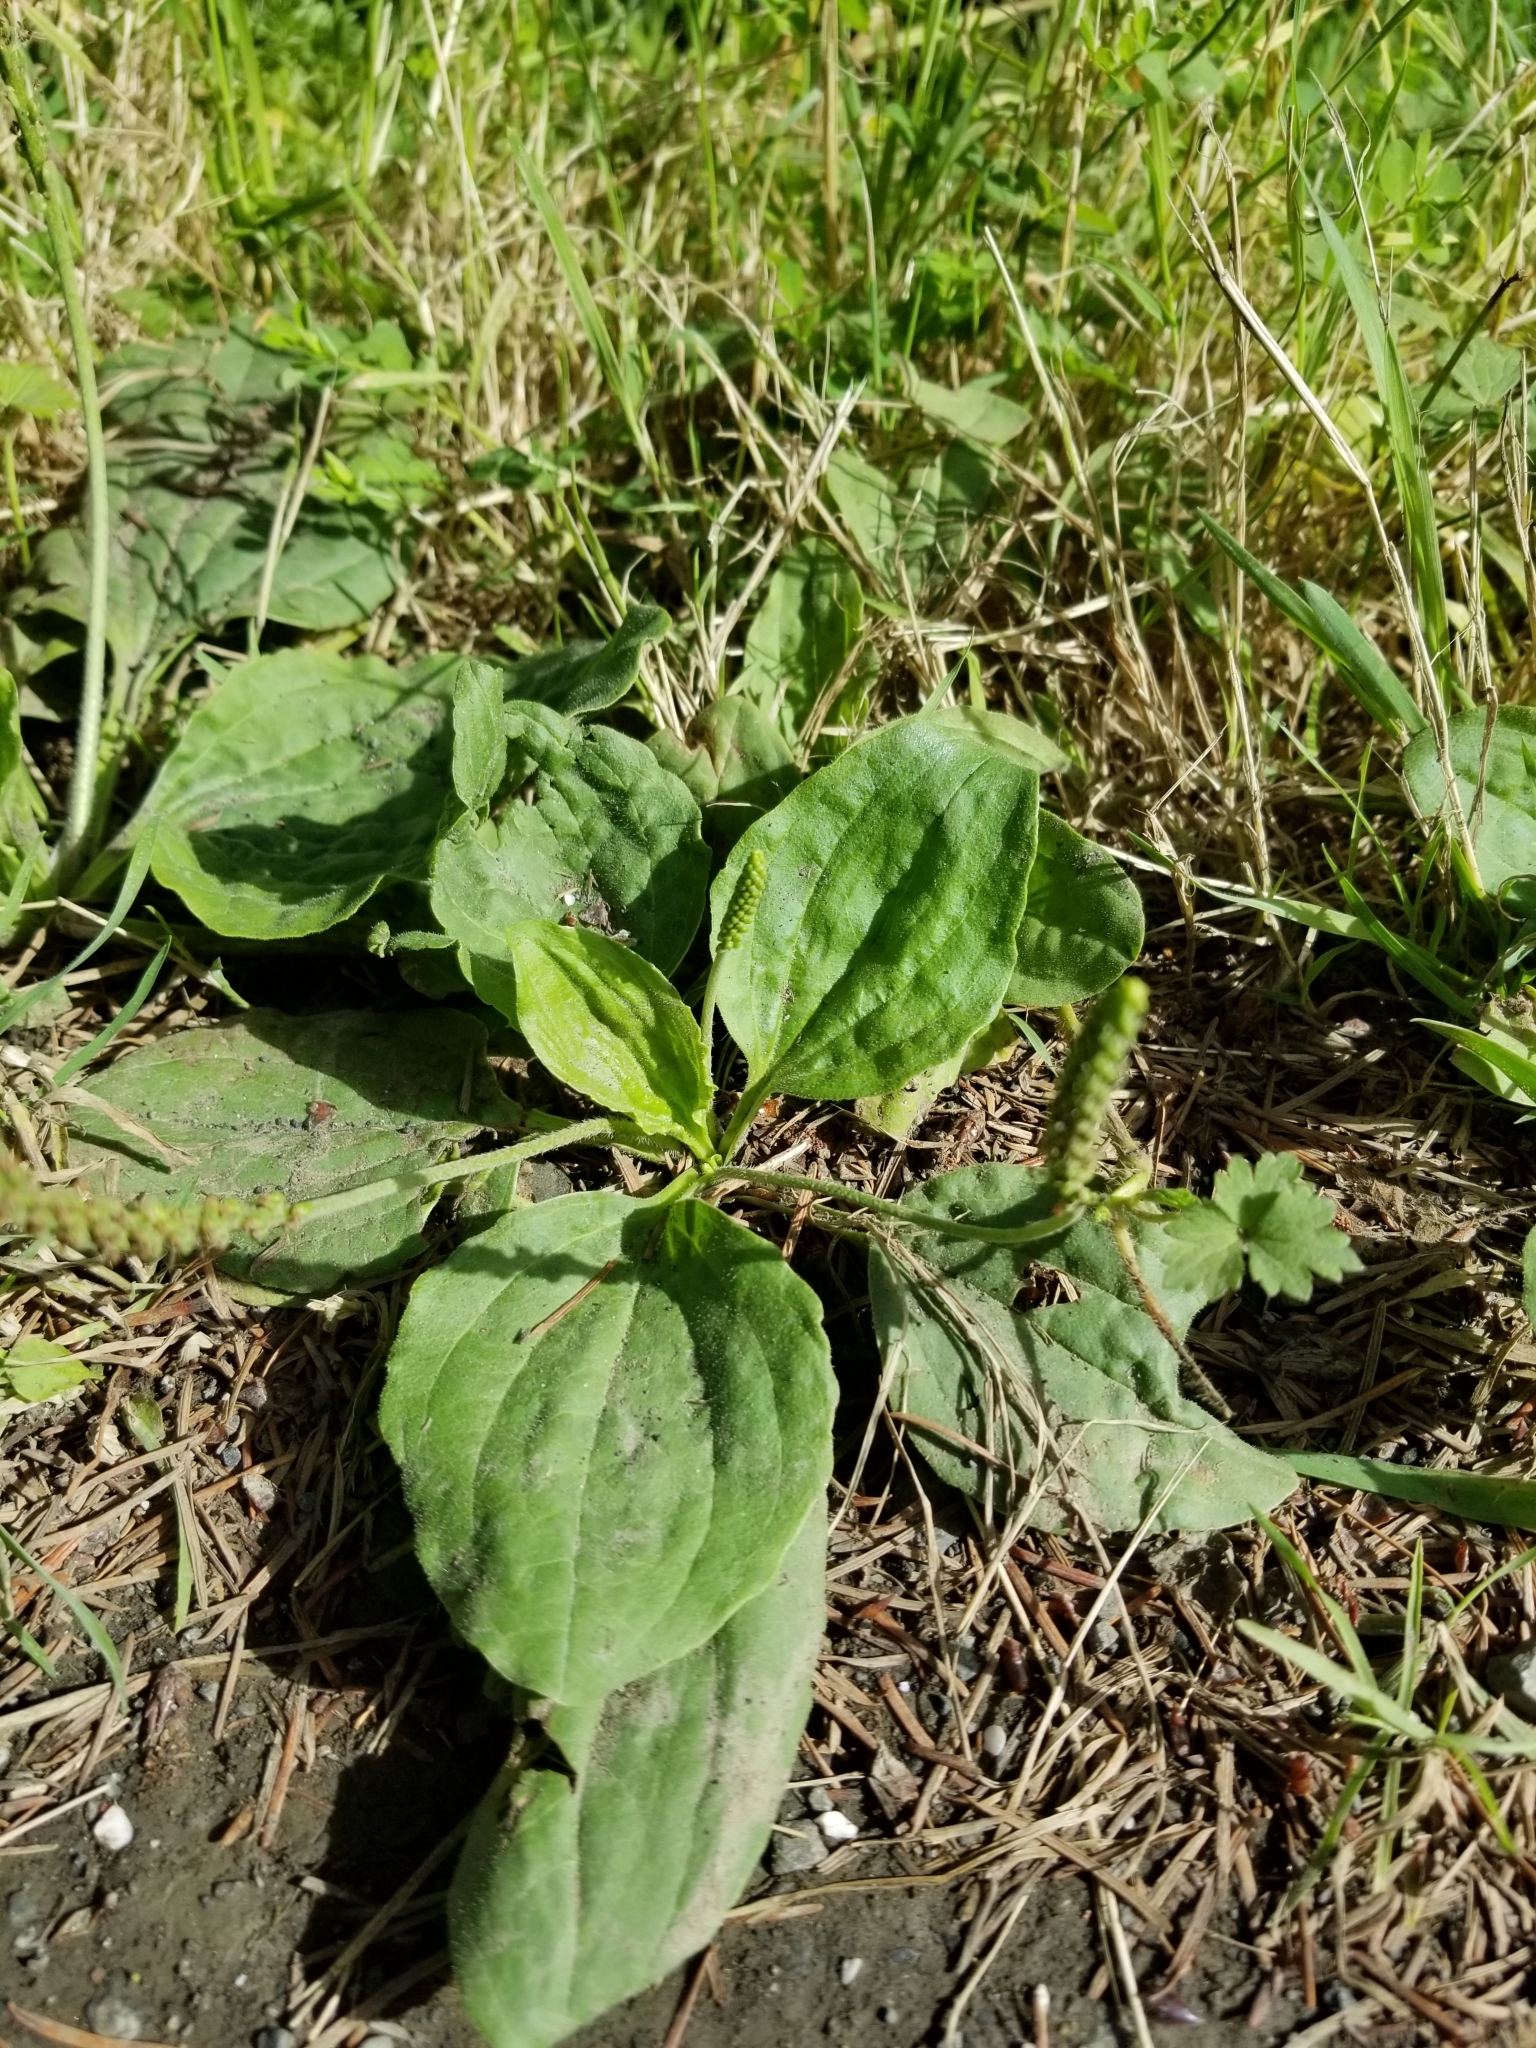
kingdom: Plantae
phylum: Tracheophyta
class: Magnoliopsida
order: Lamiales
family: Plantaginaceae
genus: Plantago
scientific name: Plantago major
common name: Common plantain
